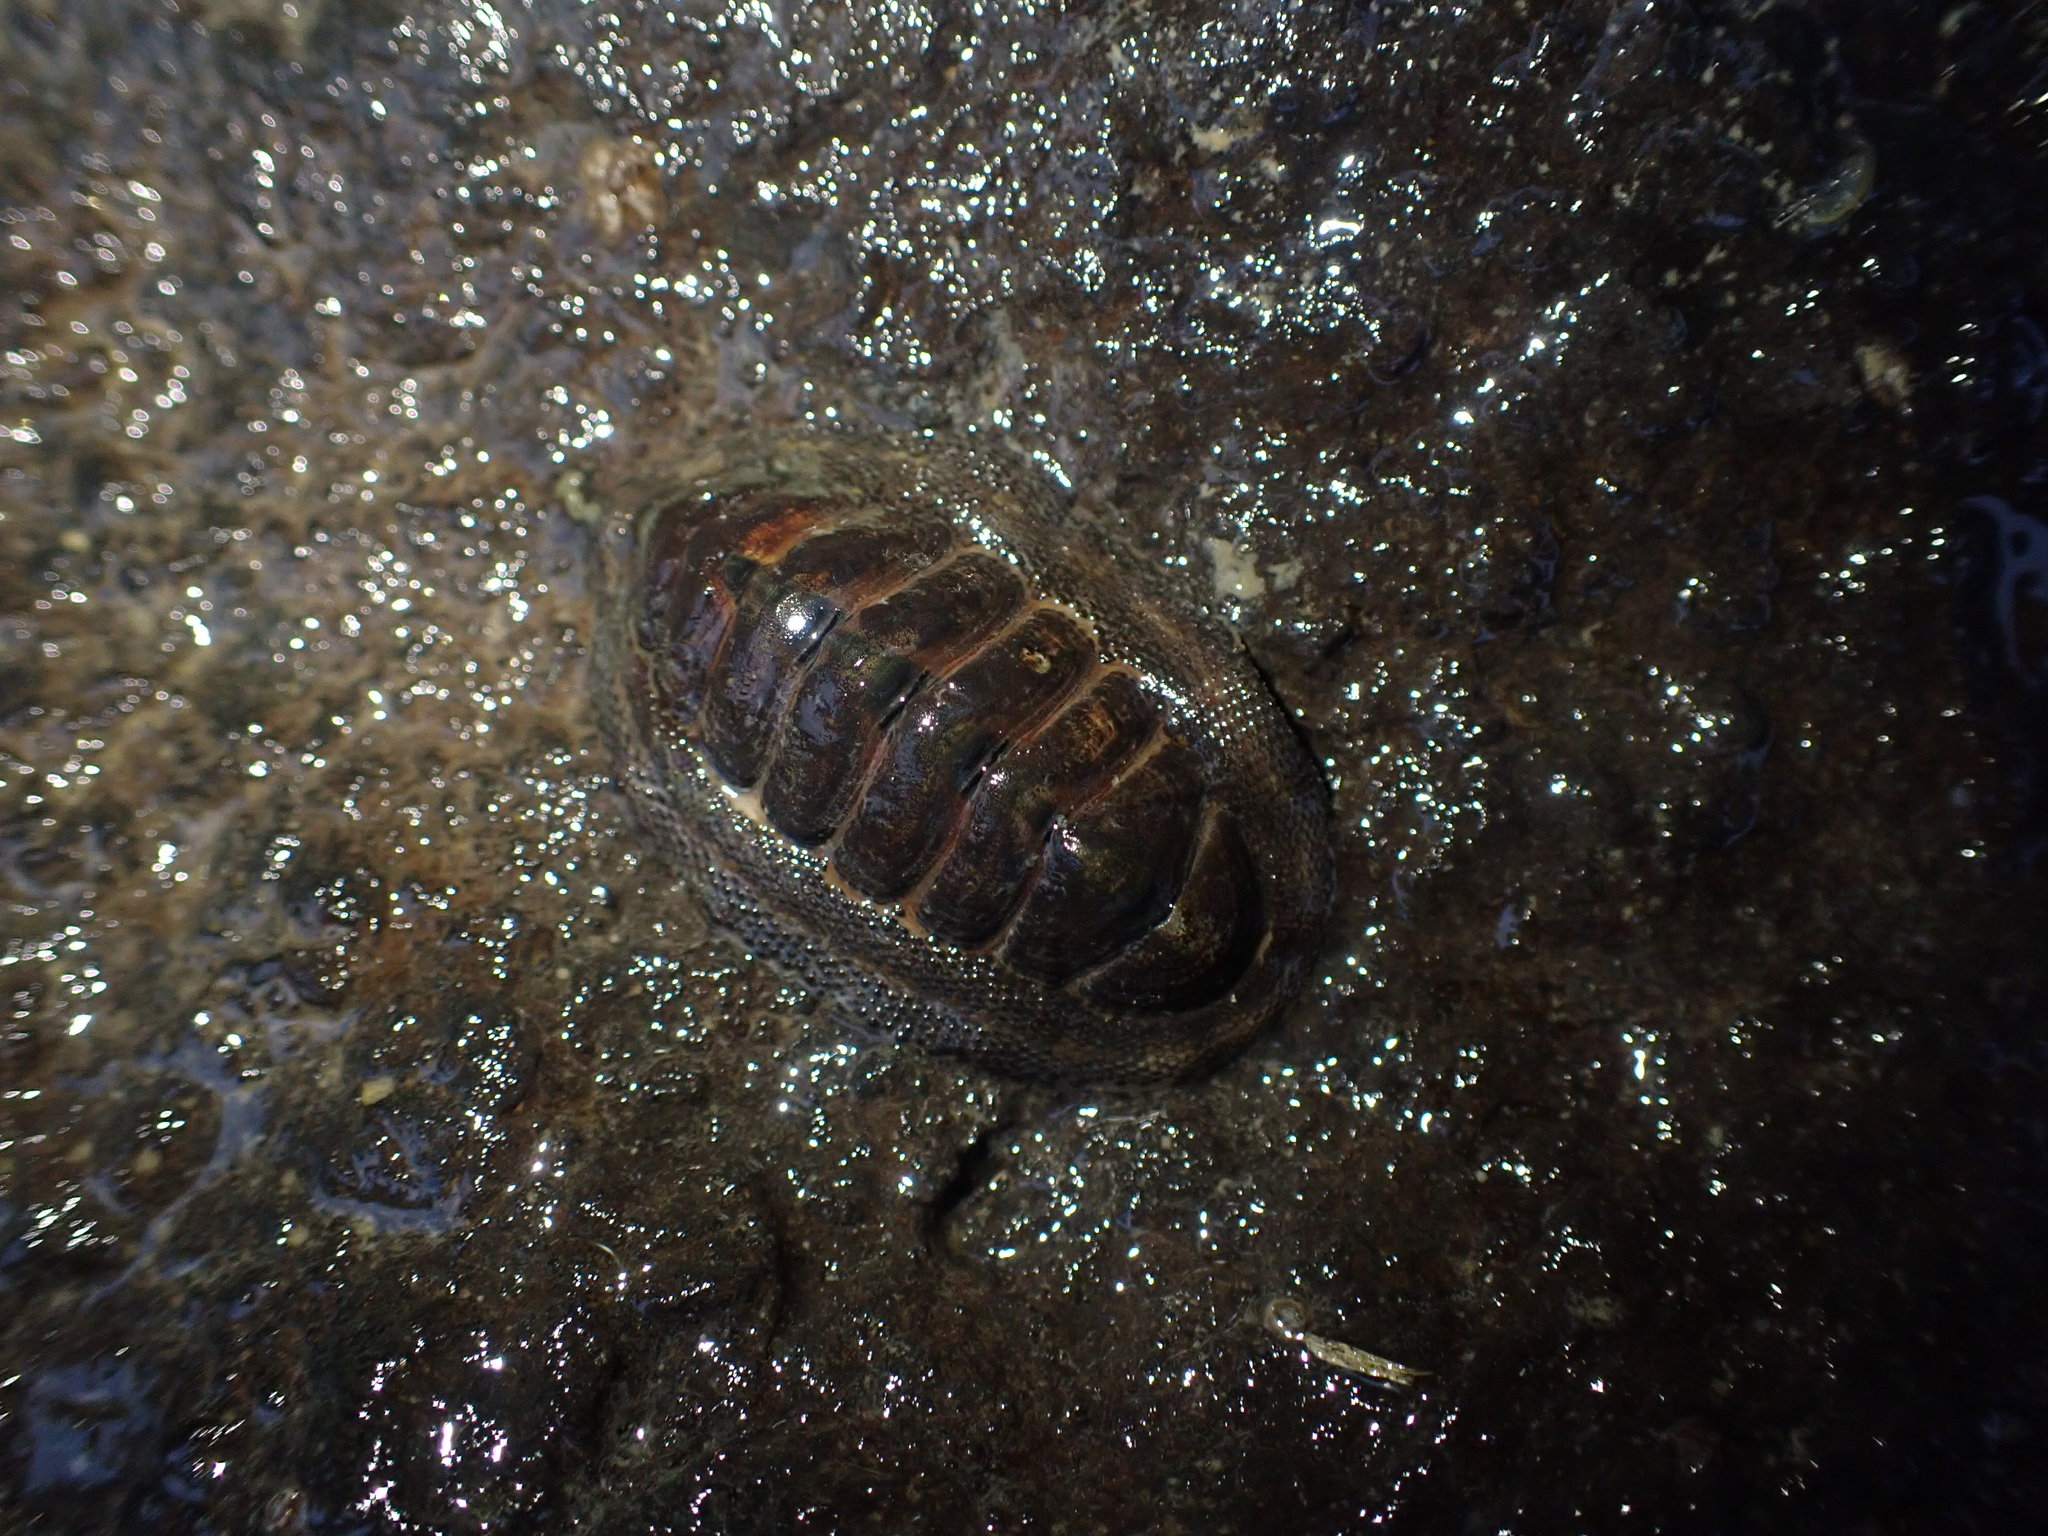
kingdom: Animalia
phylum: Mollusca
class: Polyplacophora
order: Chitonida
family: Chitonidae
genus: Sypharochiton
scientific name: Sypharochiton pelliserpentis
